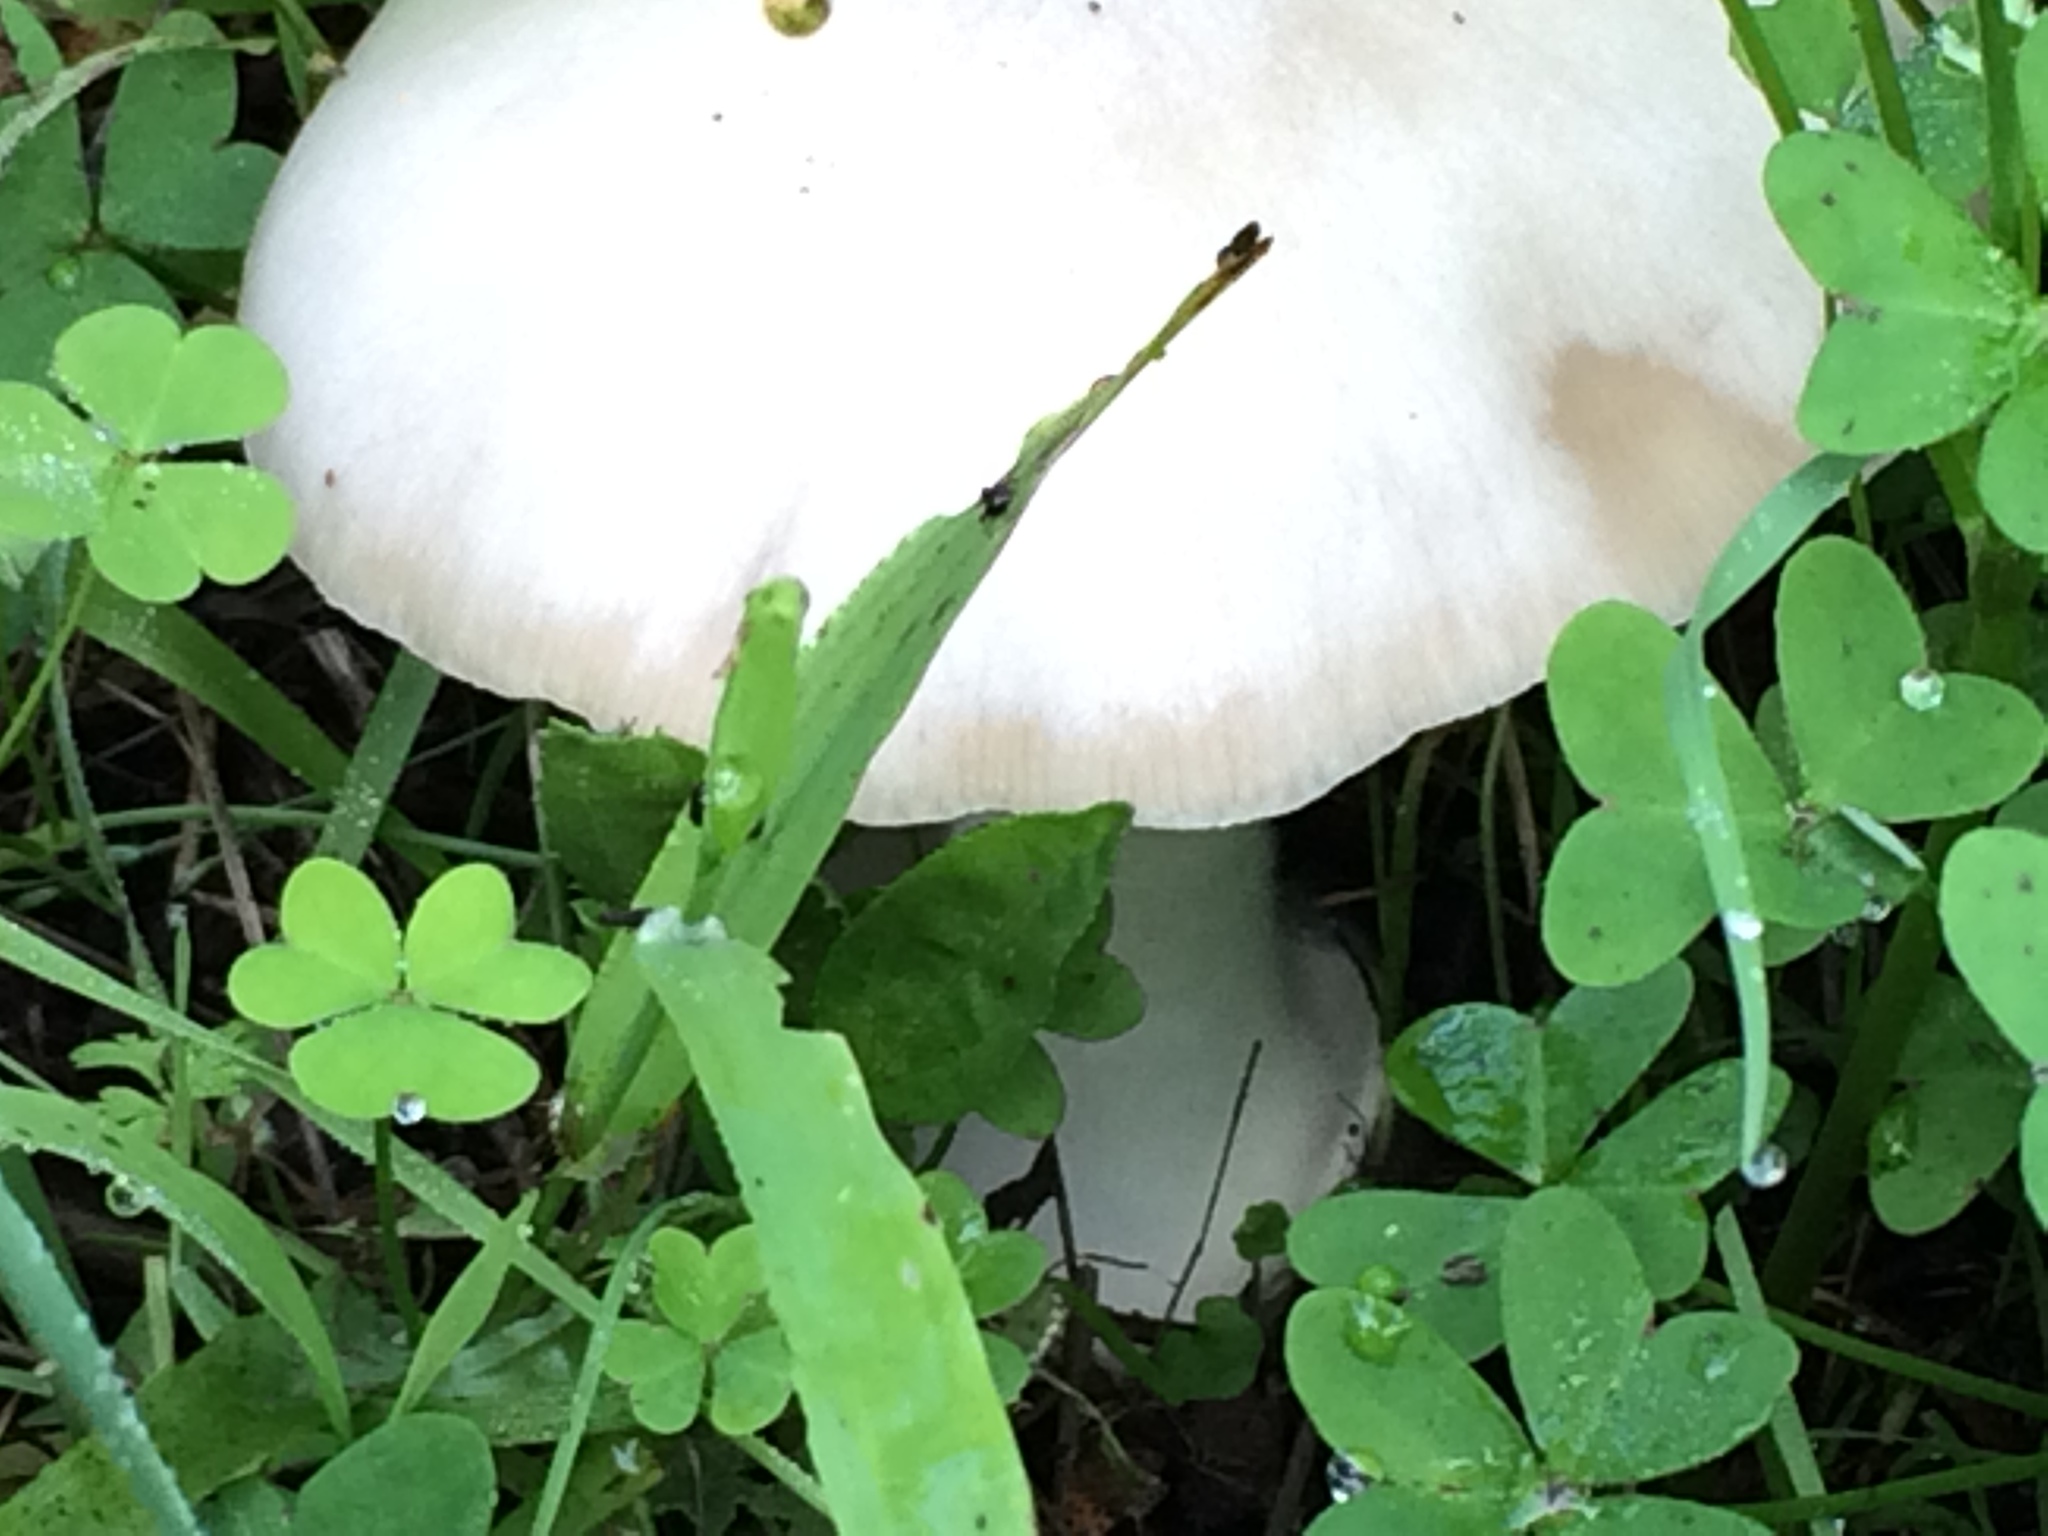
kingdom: Fungi
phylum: Basidiomycota
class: Agaricomycetes
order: Agaricales
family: Pluteaceae
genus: Volvopluteus
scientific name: Volvopluteus gloiocephalus
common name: Stubble rosegill
